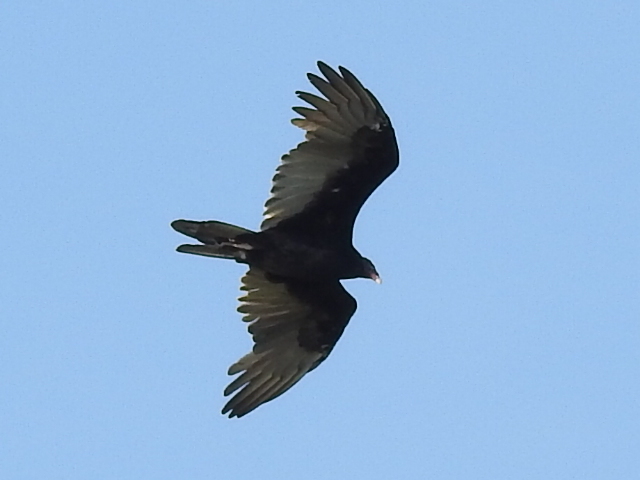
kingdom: Animalia
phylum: Chordata
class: Aves
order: Accipitriformes
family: Cathartidae
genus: Cathartes
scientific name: Cathartes aura
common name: Turkey vulture
